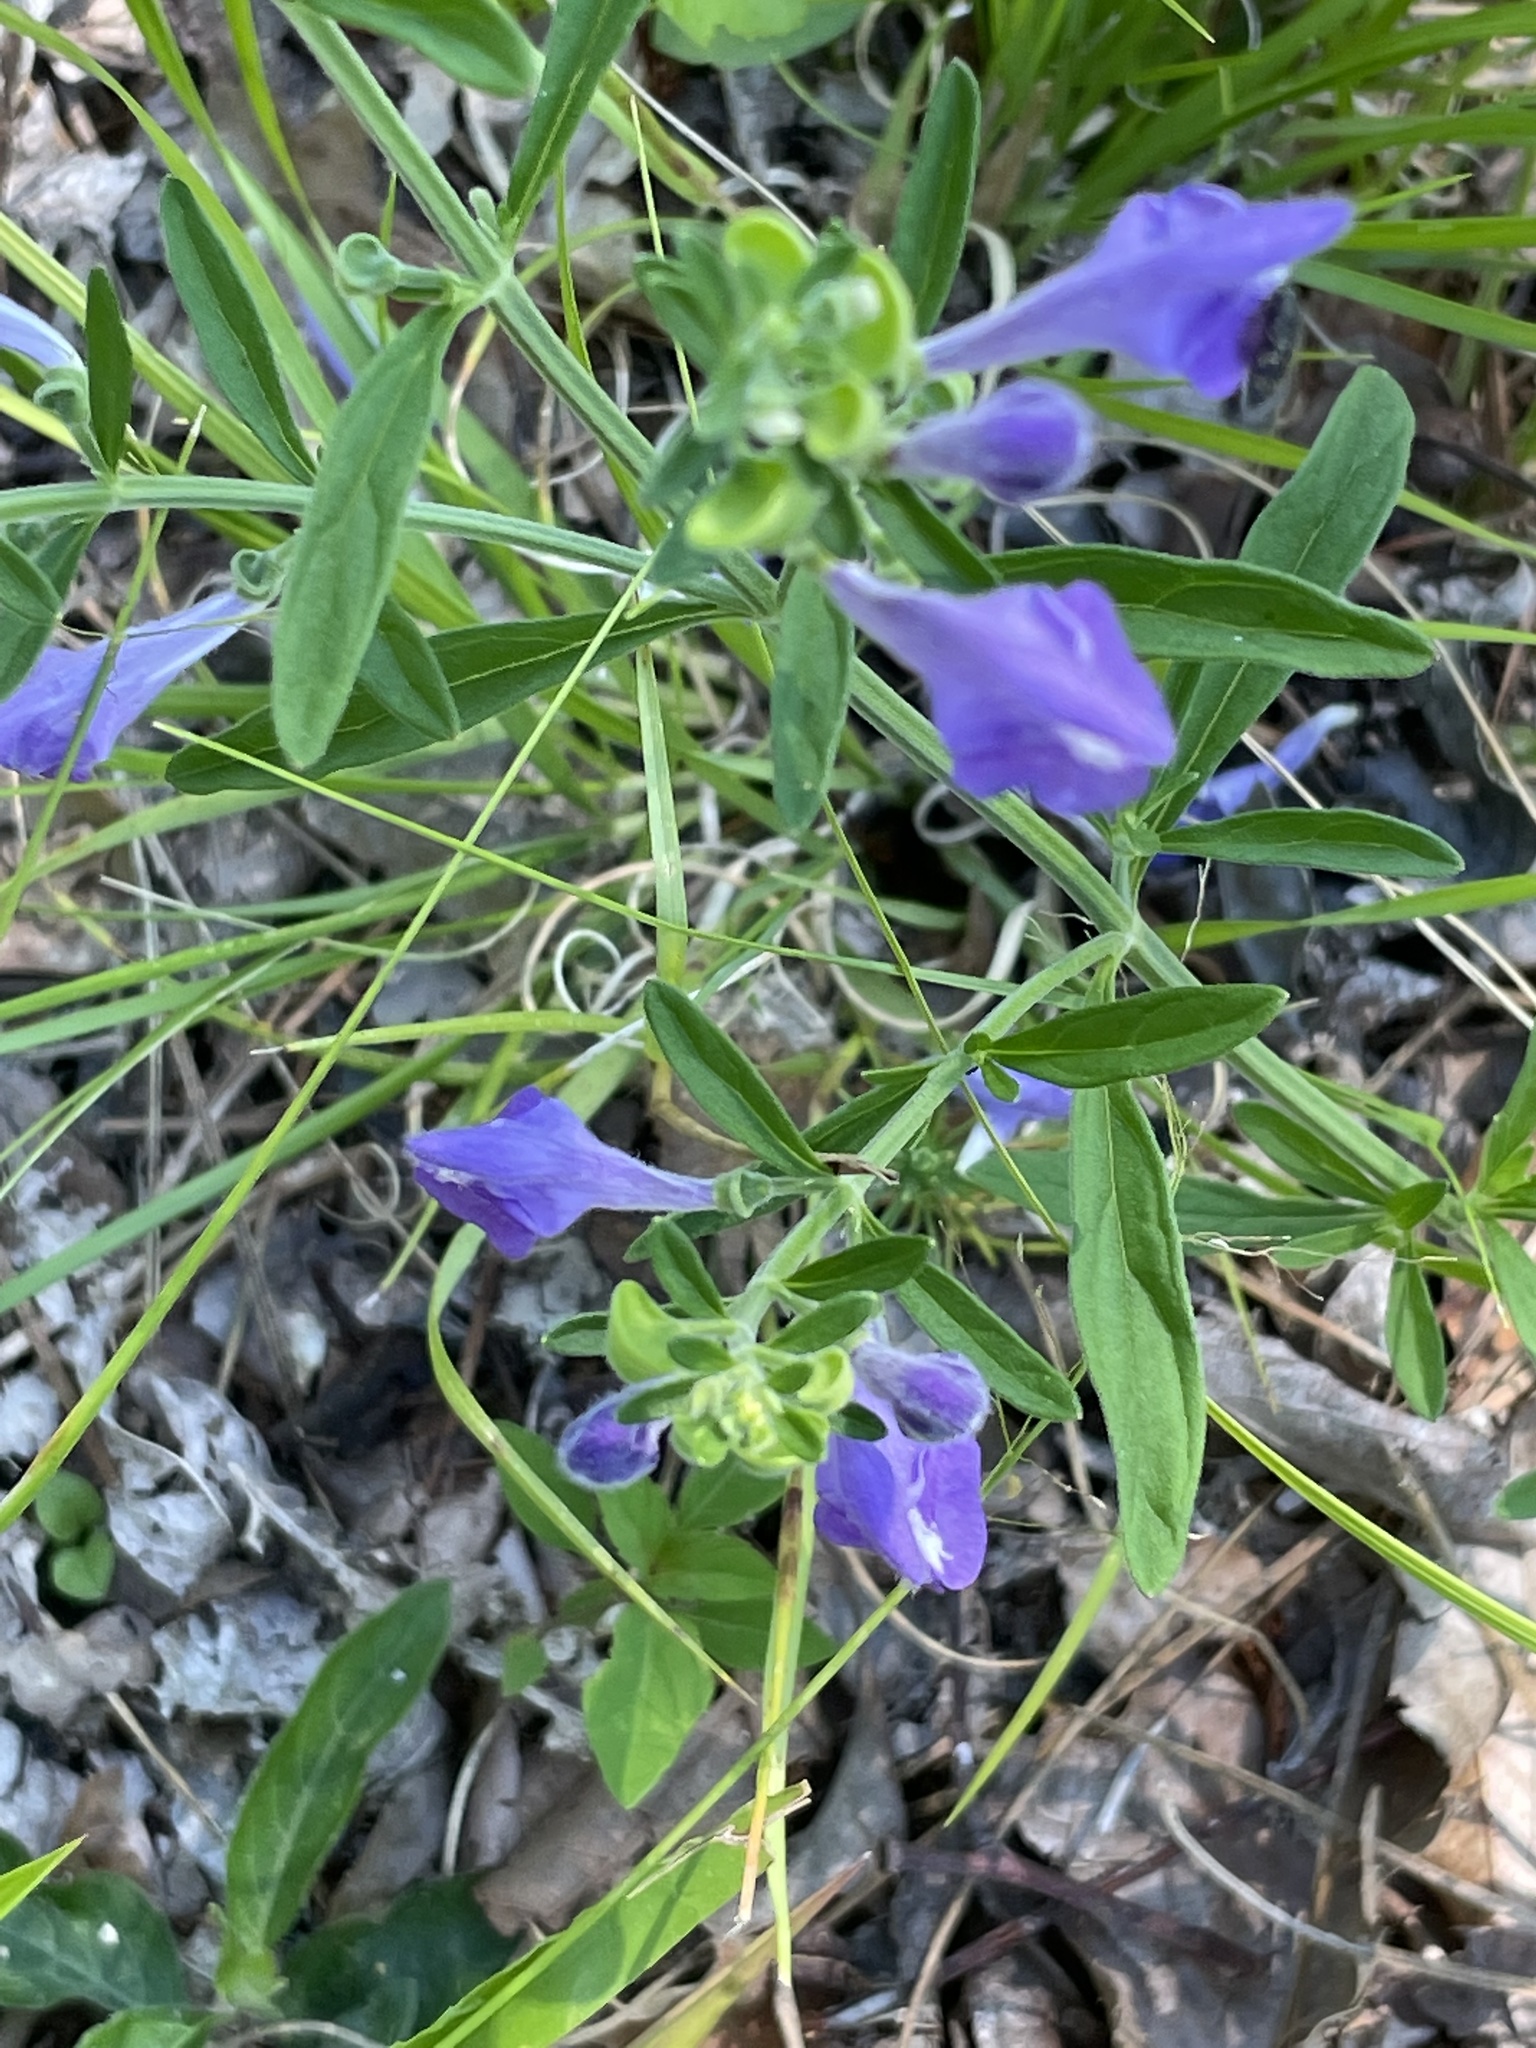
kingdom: Plantae
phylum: Tracheophyta
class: Magnoliopsida
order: Lamiales
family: Lamiaceae
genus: Scutellaria
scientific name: Scutellaria integrifolia
